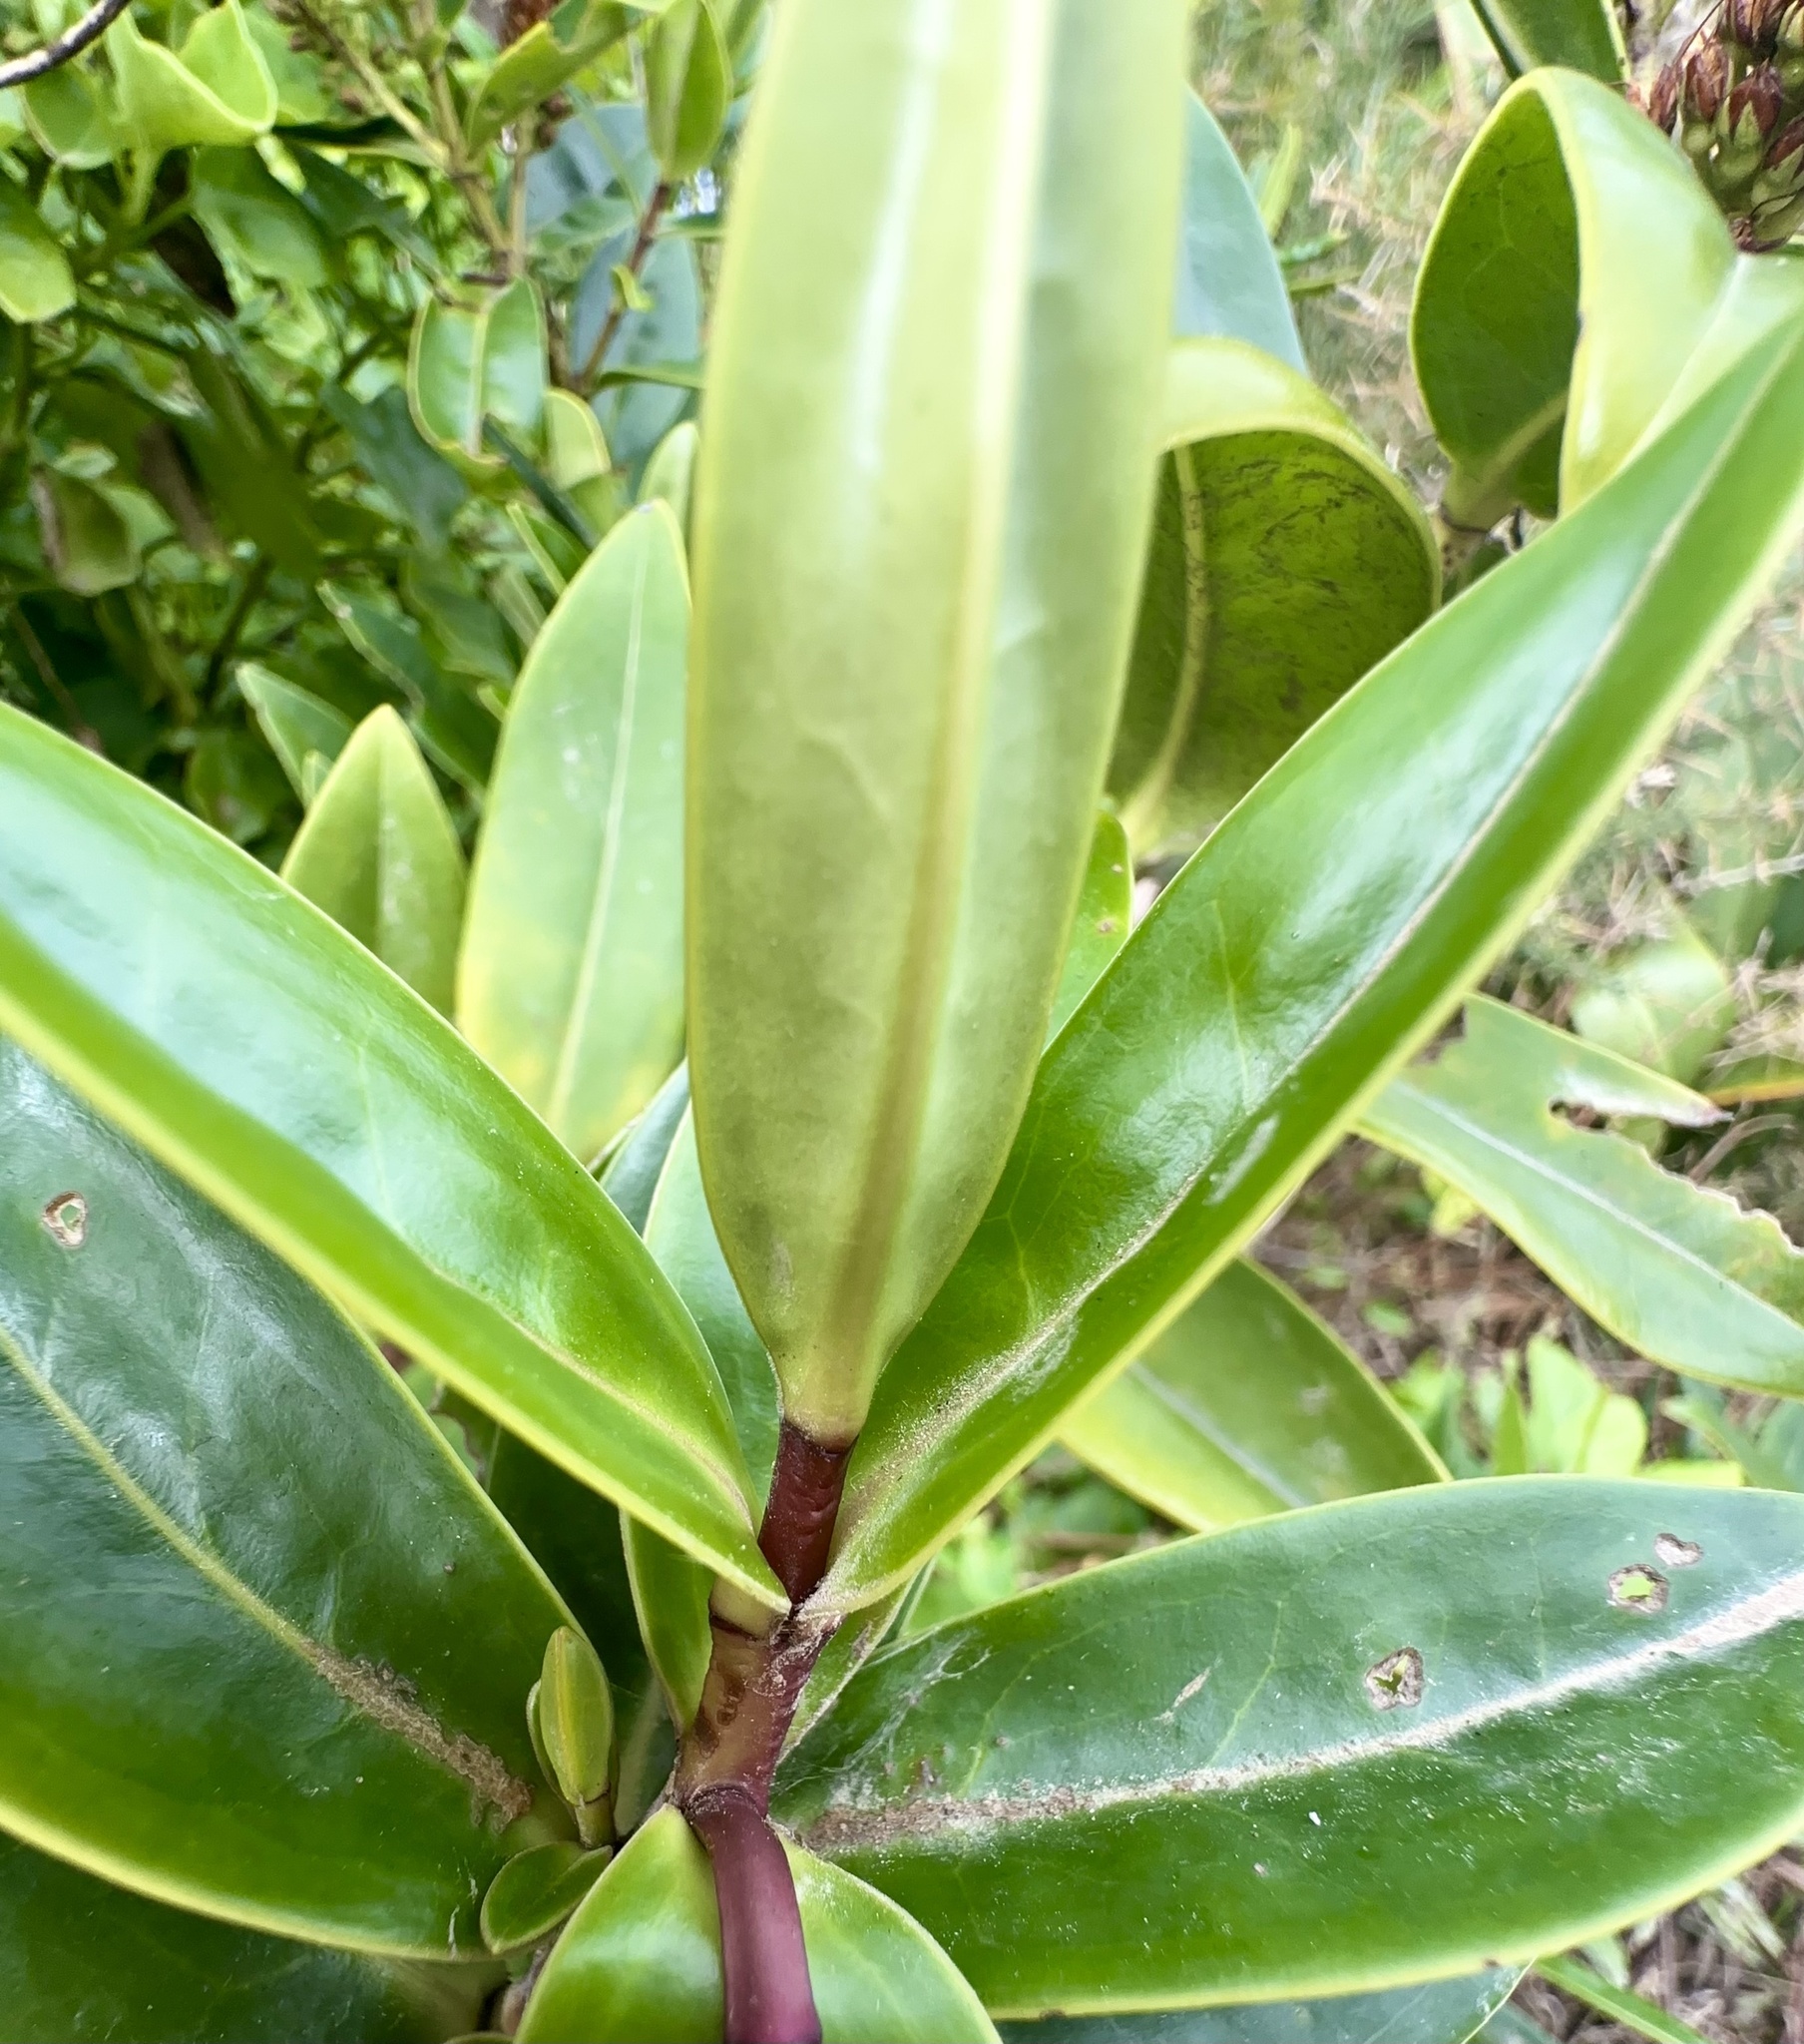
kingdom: Plantae
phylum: Tracheophyta
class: Magnoliopsida
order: Lamiales
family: Plantaginaceae
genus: Veronica
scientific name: Veronica speciosa
